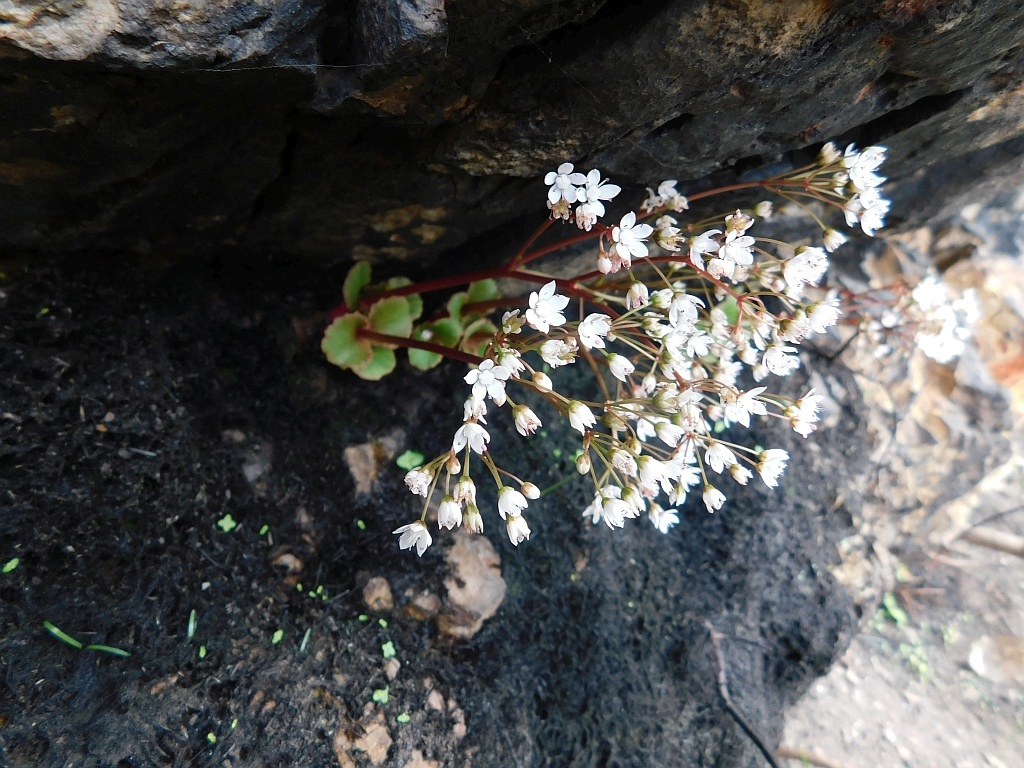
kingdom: Plantae
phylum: Tracheophyta
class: Magnoliopsida
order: Saxifragales
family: Crassulaceae
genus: Crassula
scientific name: Crassula capensis
